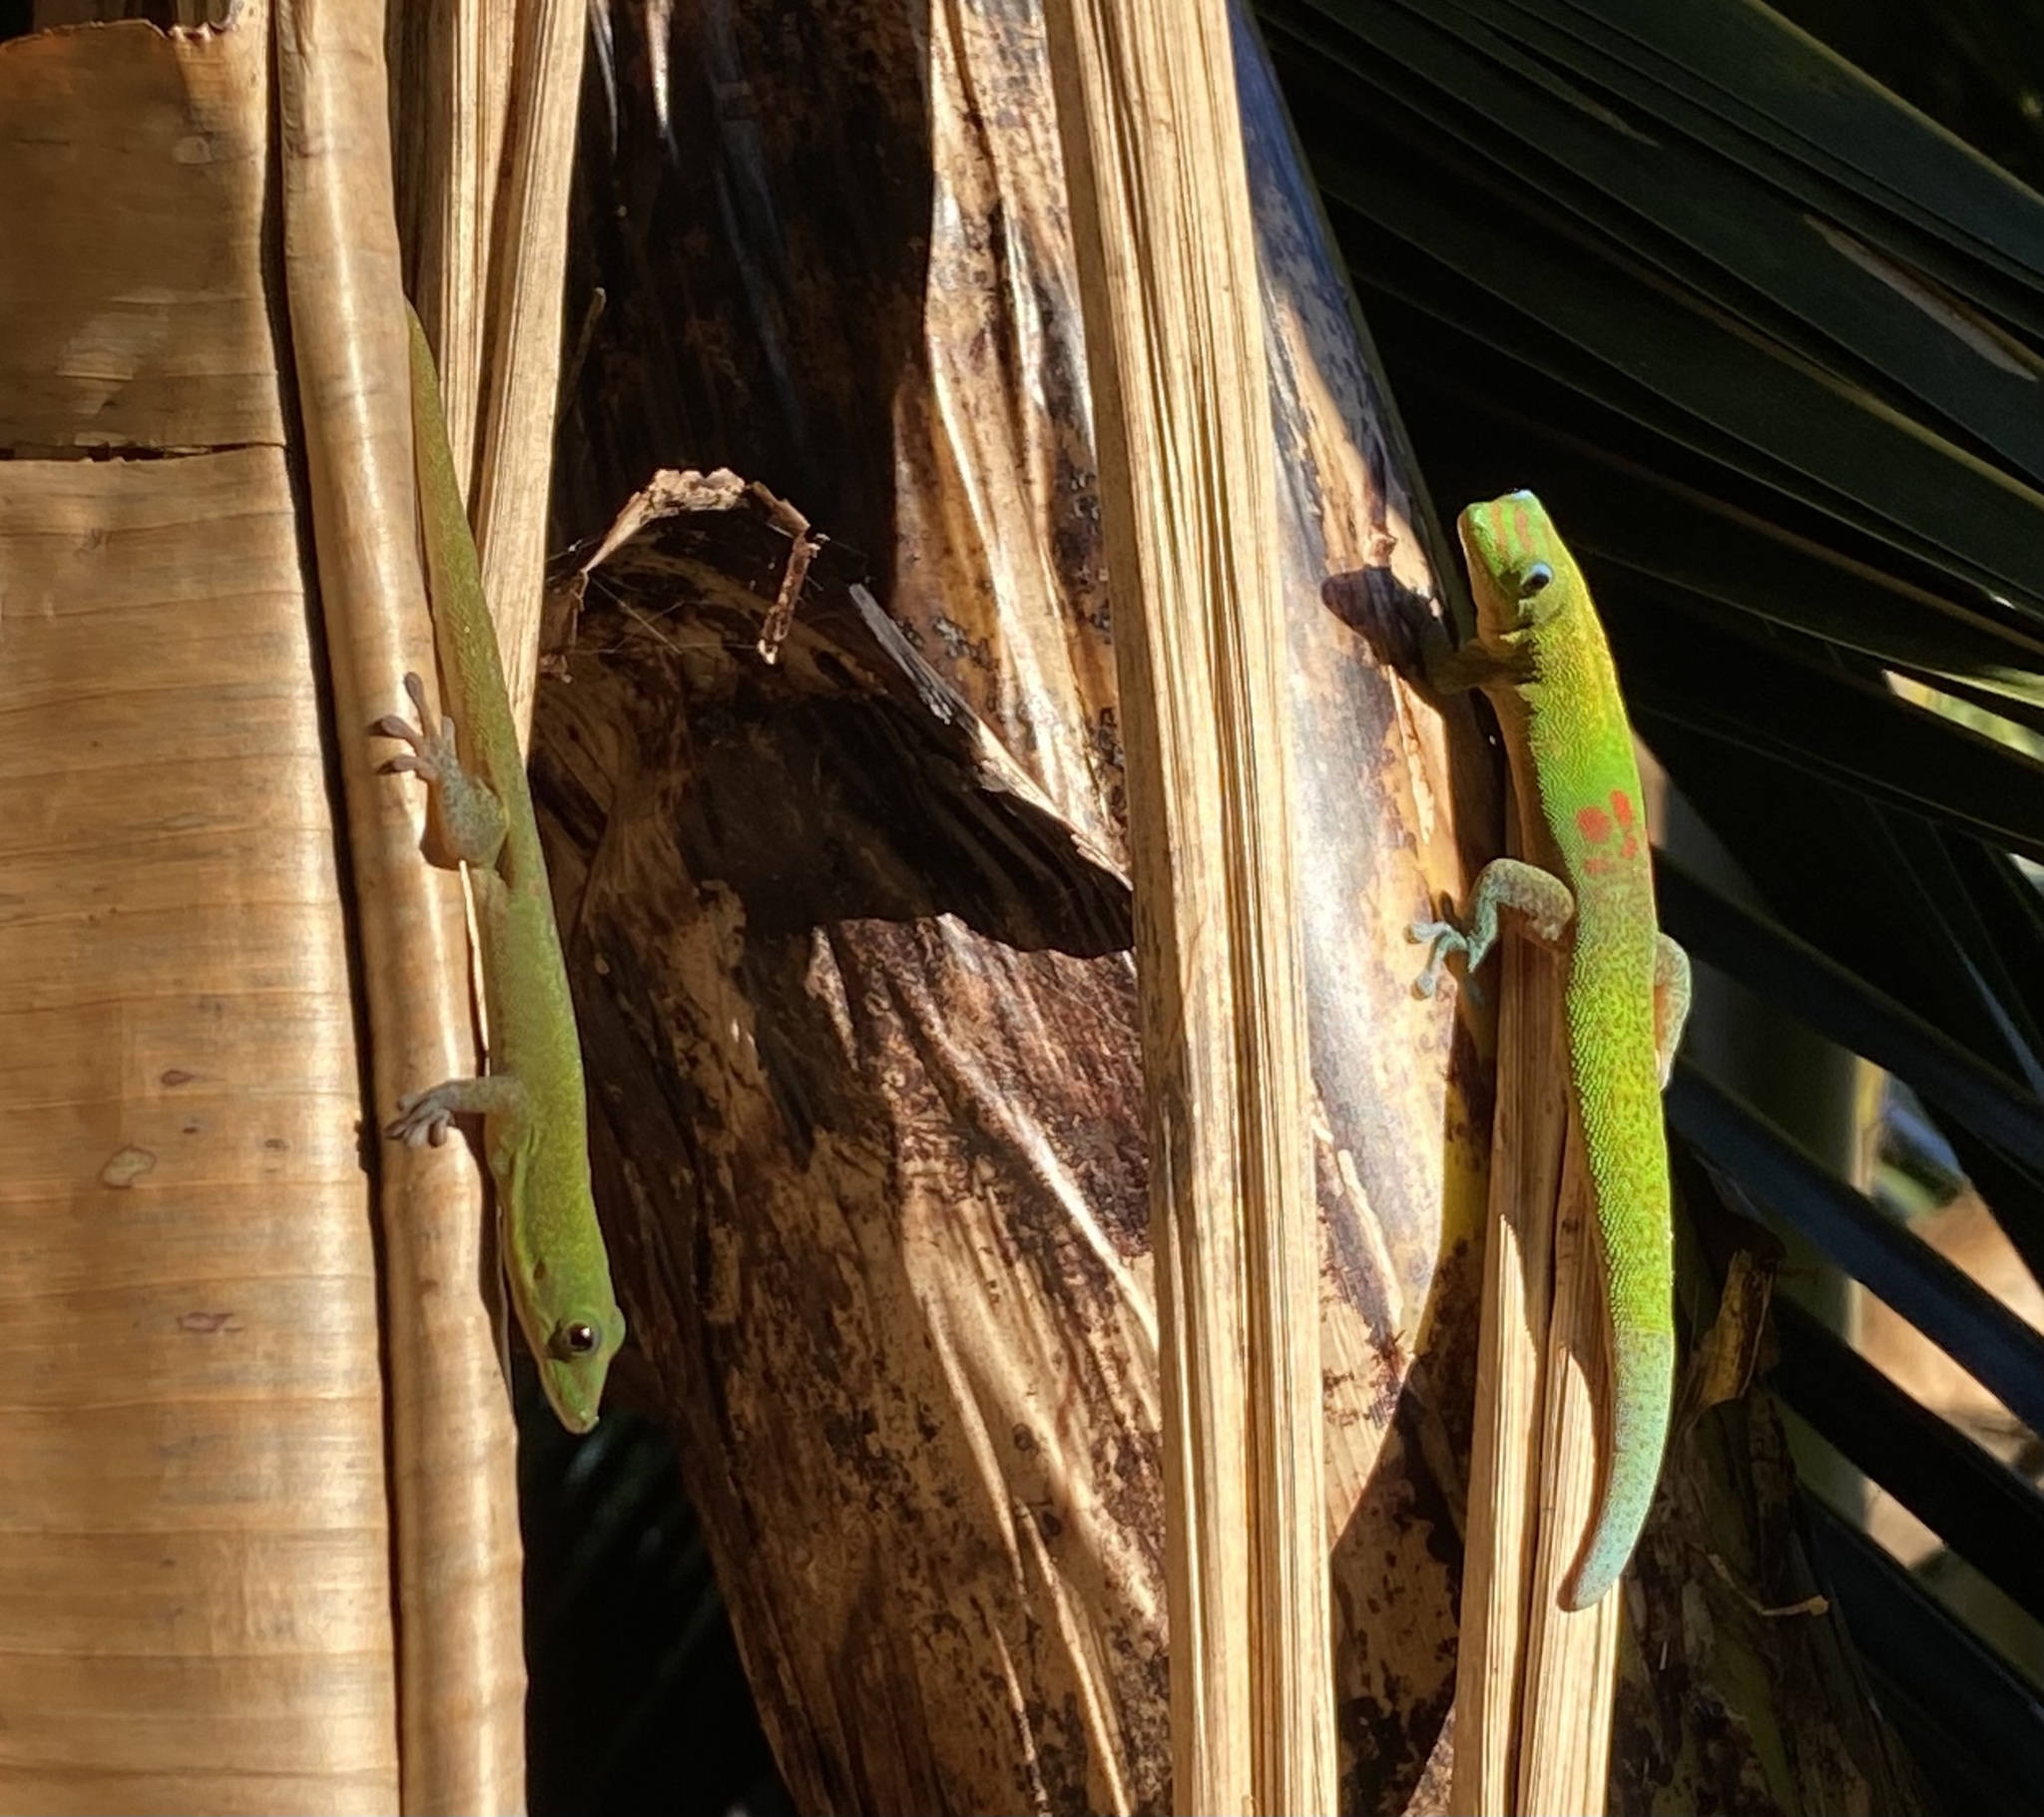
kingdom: Animalia
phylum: Chordata
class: Squamata
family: Gekkonidae
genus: Phelsuma
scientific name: Phelsuma laticauda
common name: Gold dust day gecko
